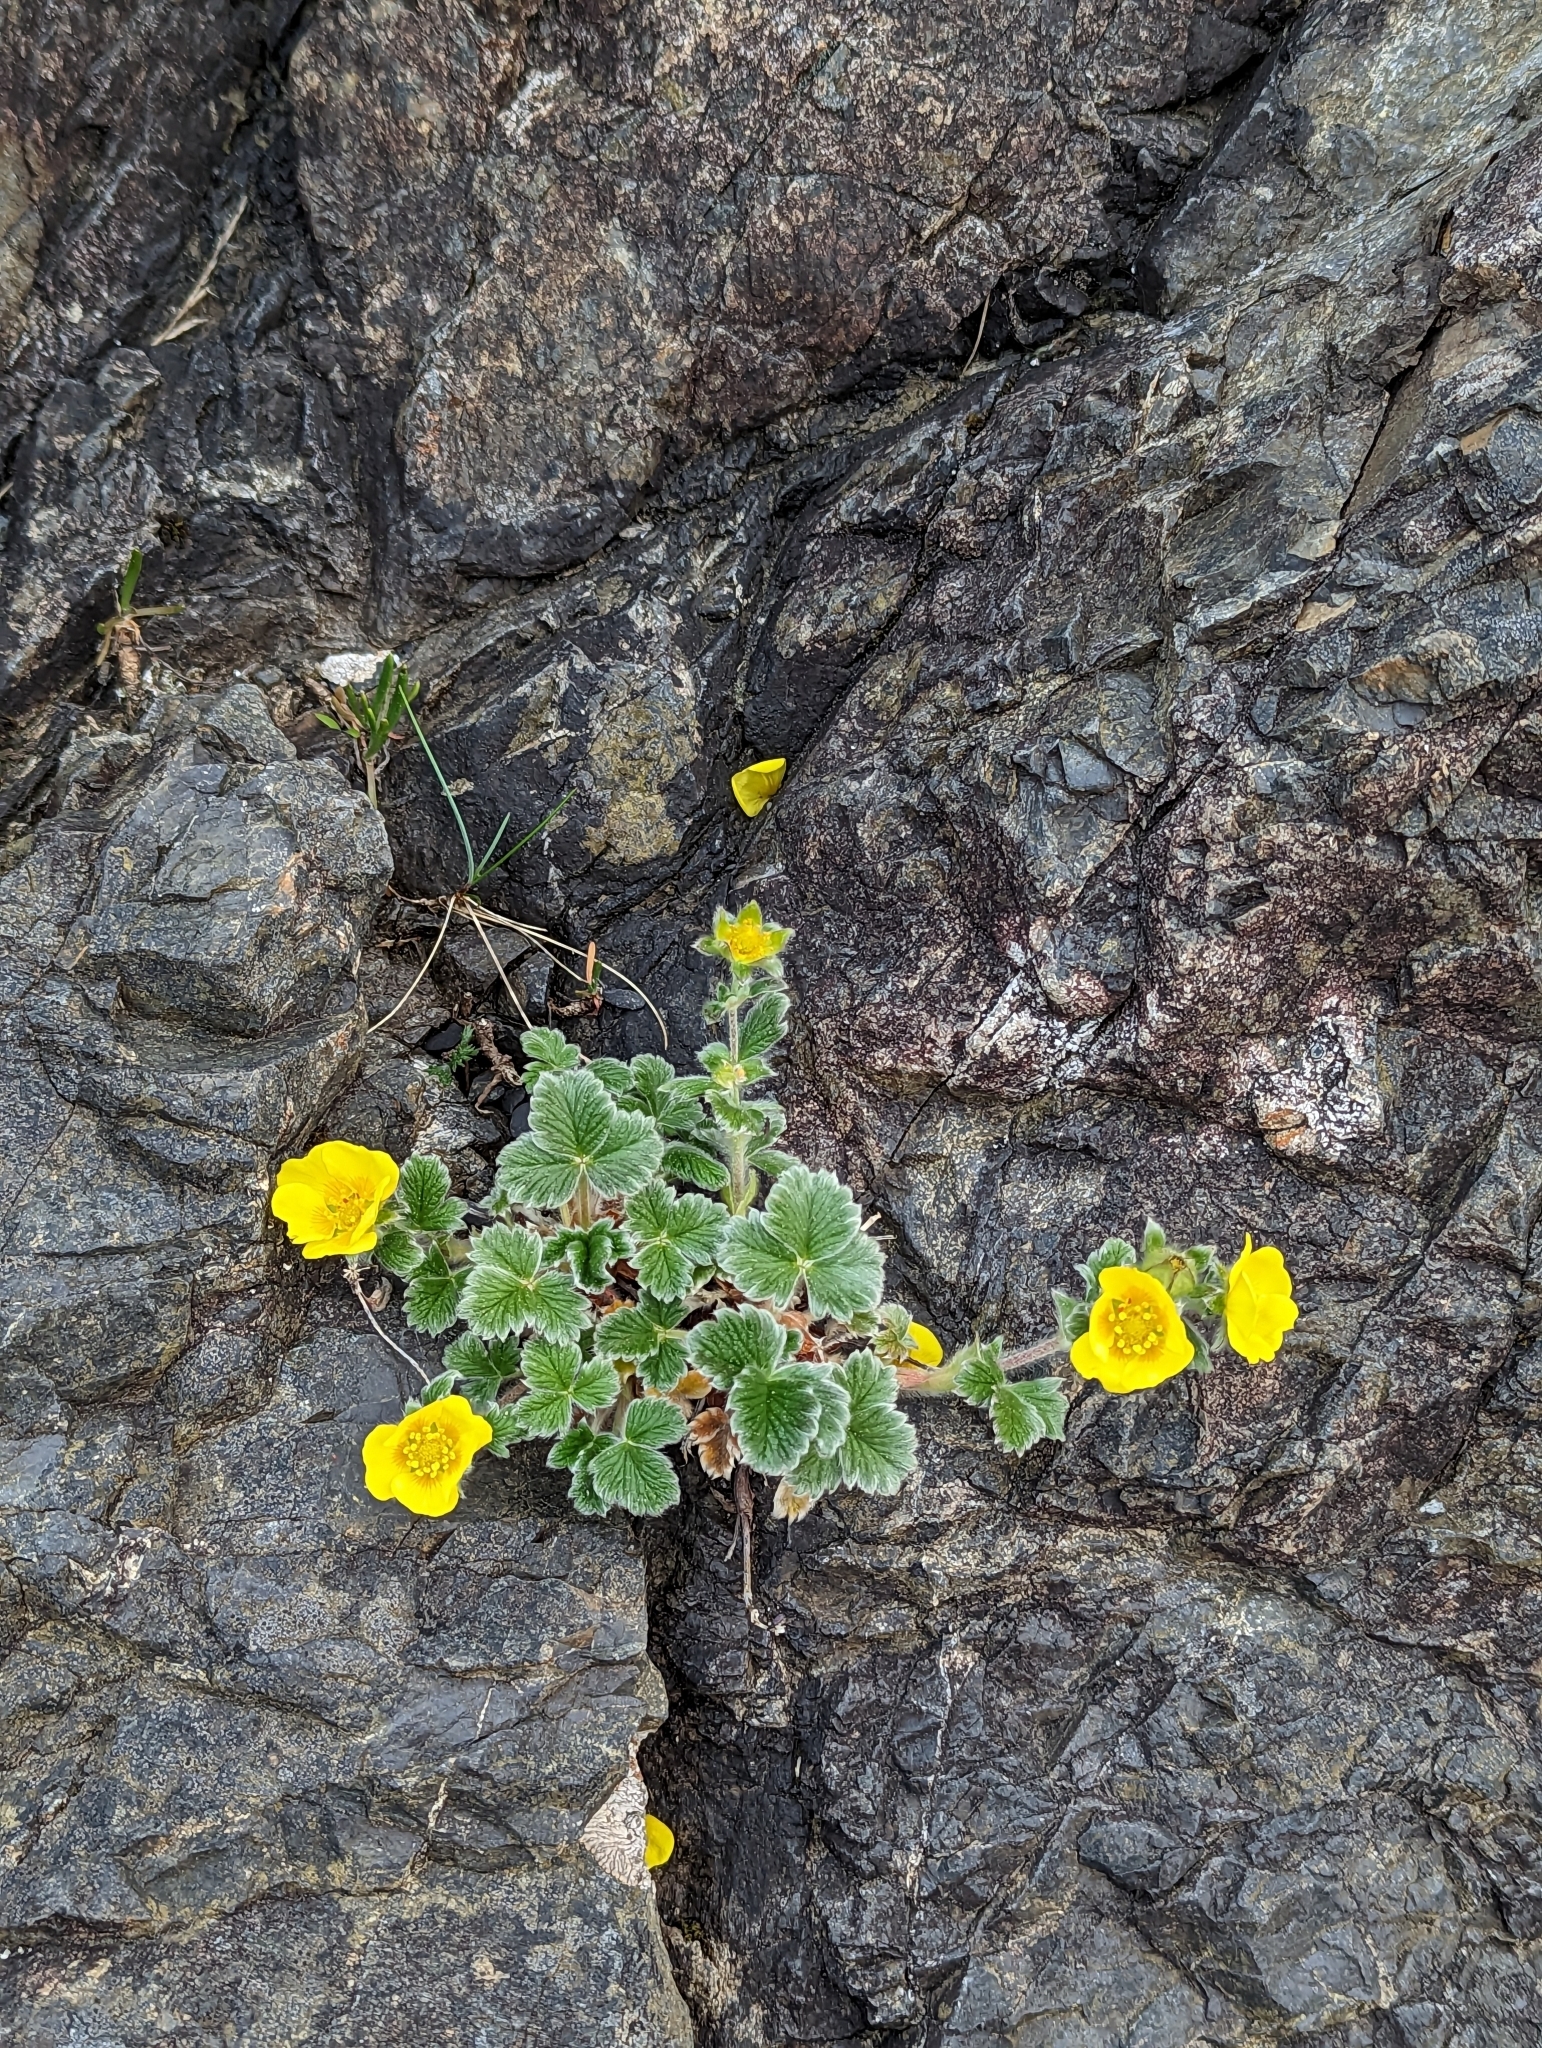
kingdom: Plantae
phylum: Tracheophyta
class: Magnoliopsida
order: Rosales
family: Rosaceae
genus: Potentilla
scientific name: Potentilla villosa
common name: Northern cinquefoil
